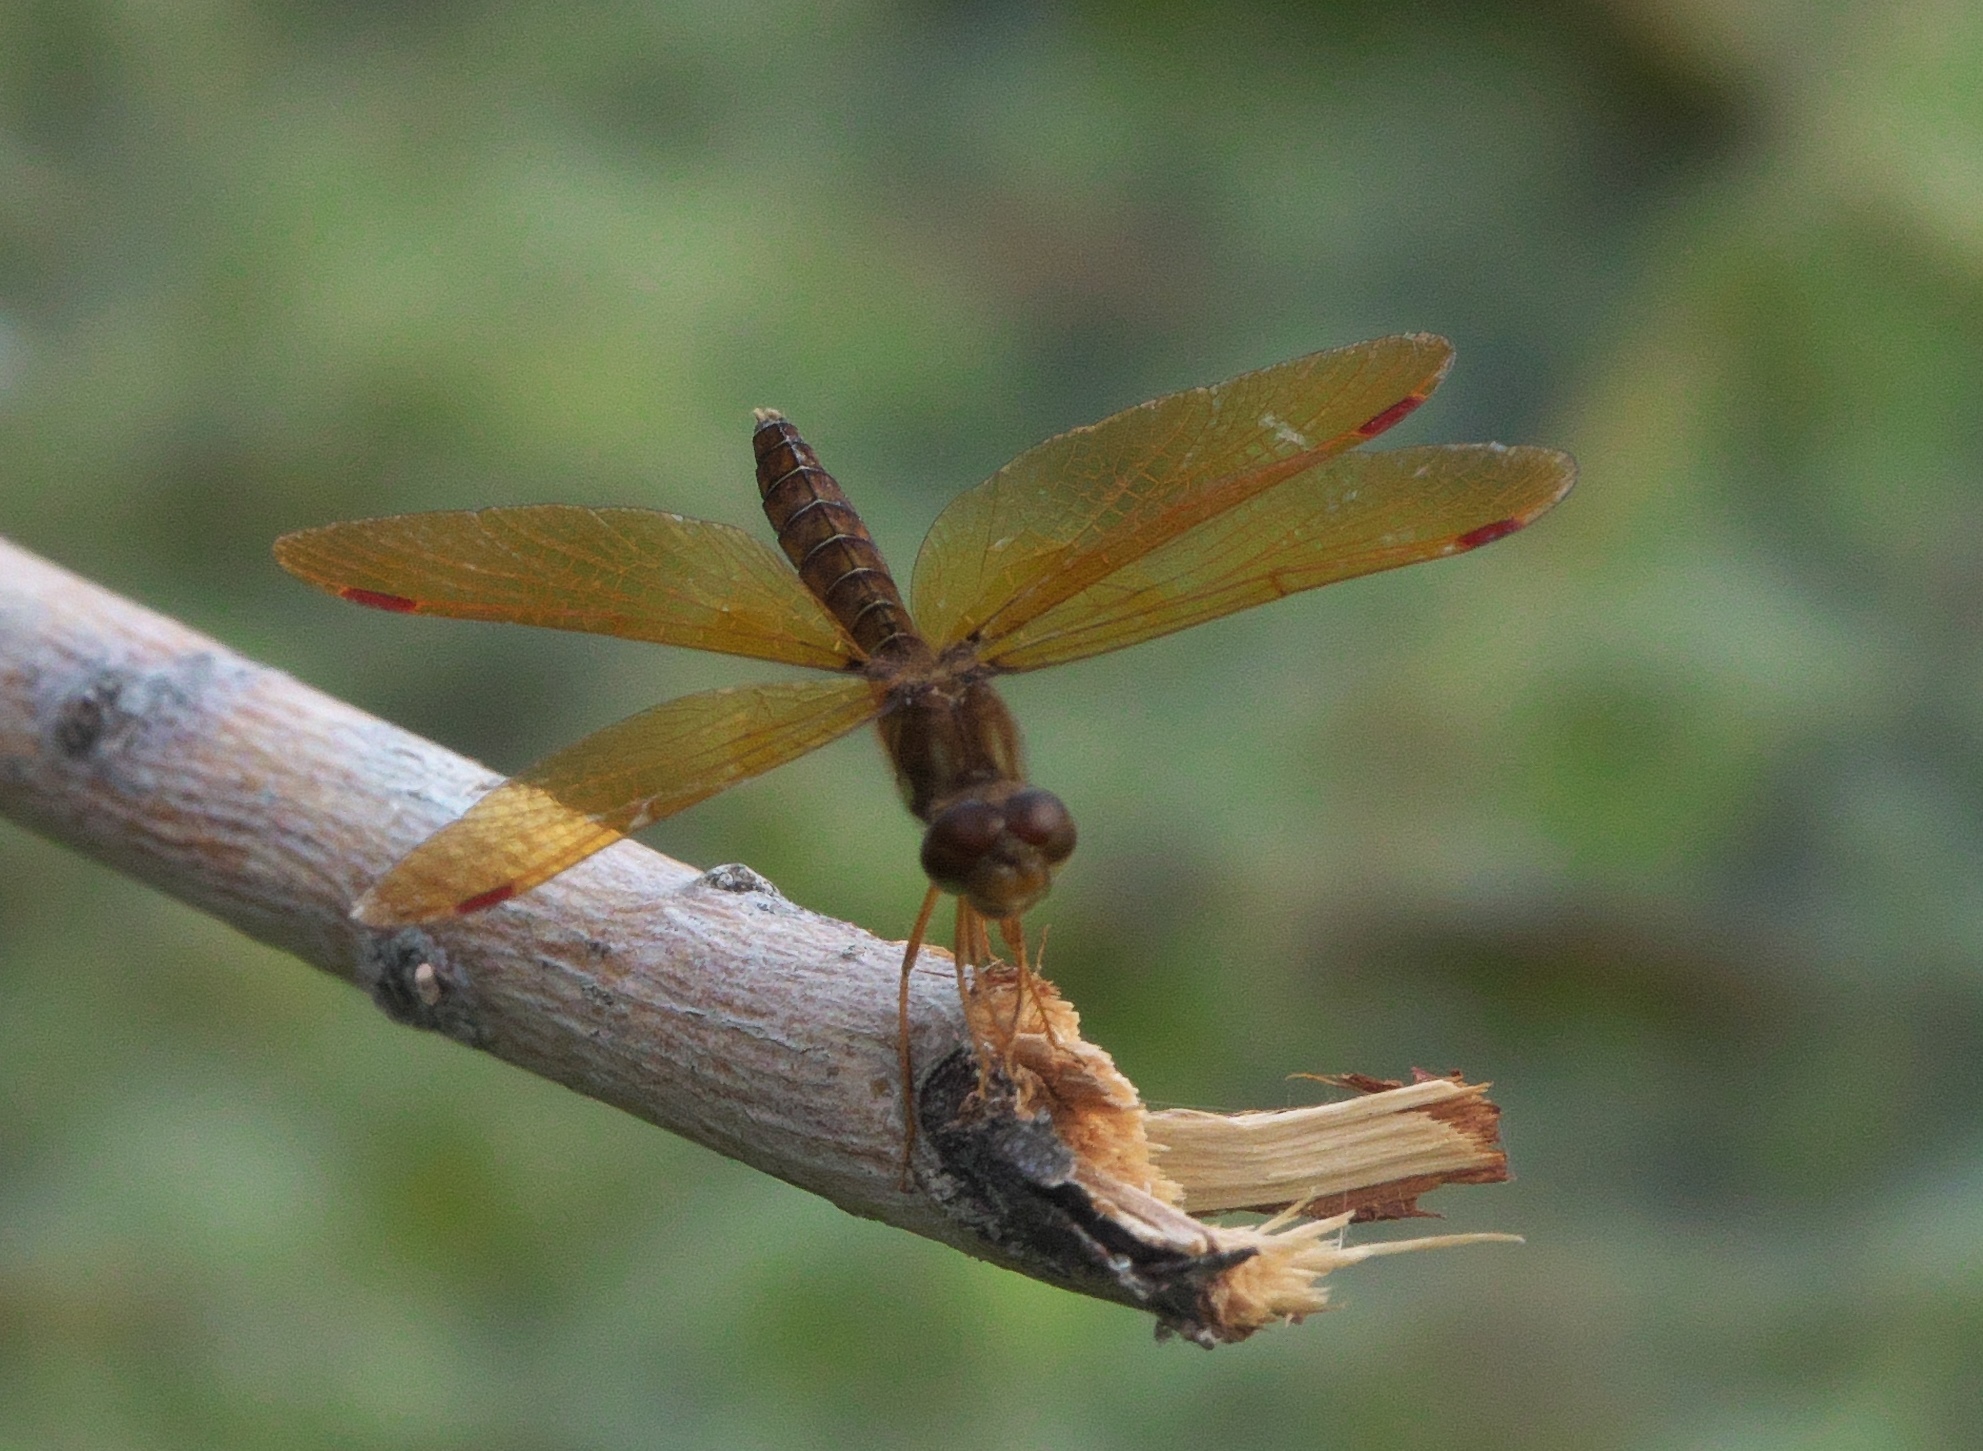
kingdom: Animalia
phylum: Arthropoda
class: Insecta
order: Odonata
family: Libellulidae
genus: Perithemis
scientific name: Perithemis tenera
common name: Eastern amberwing
